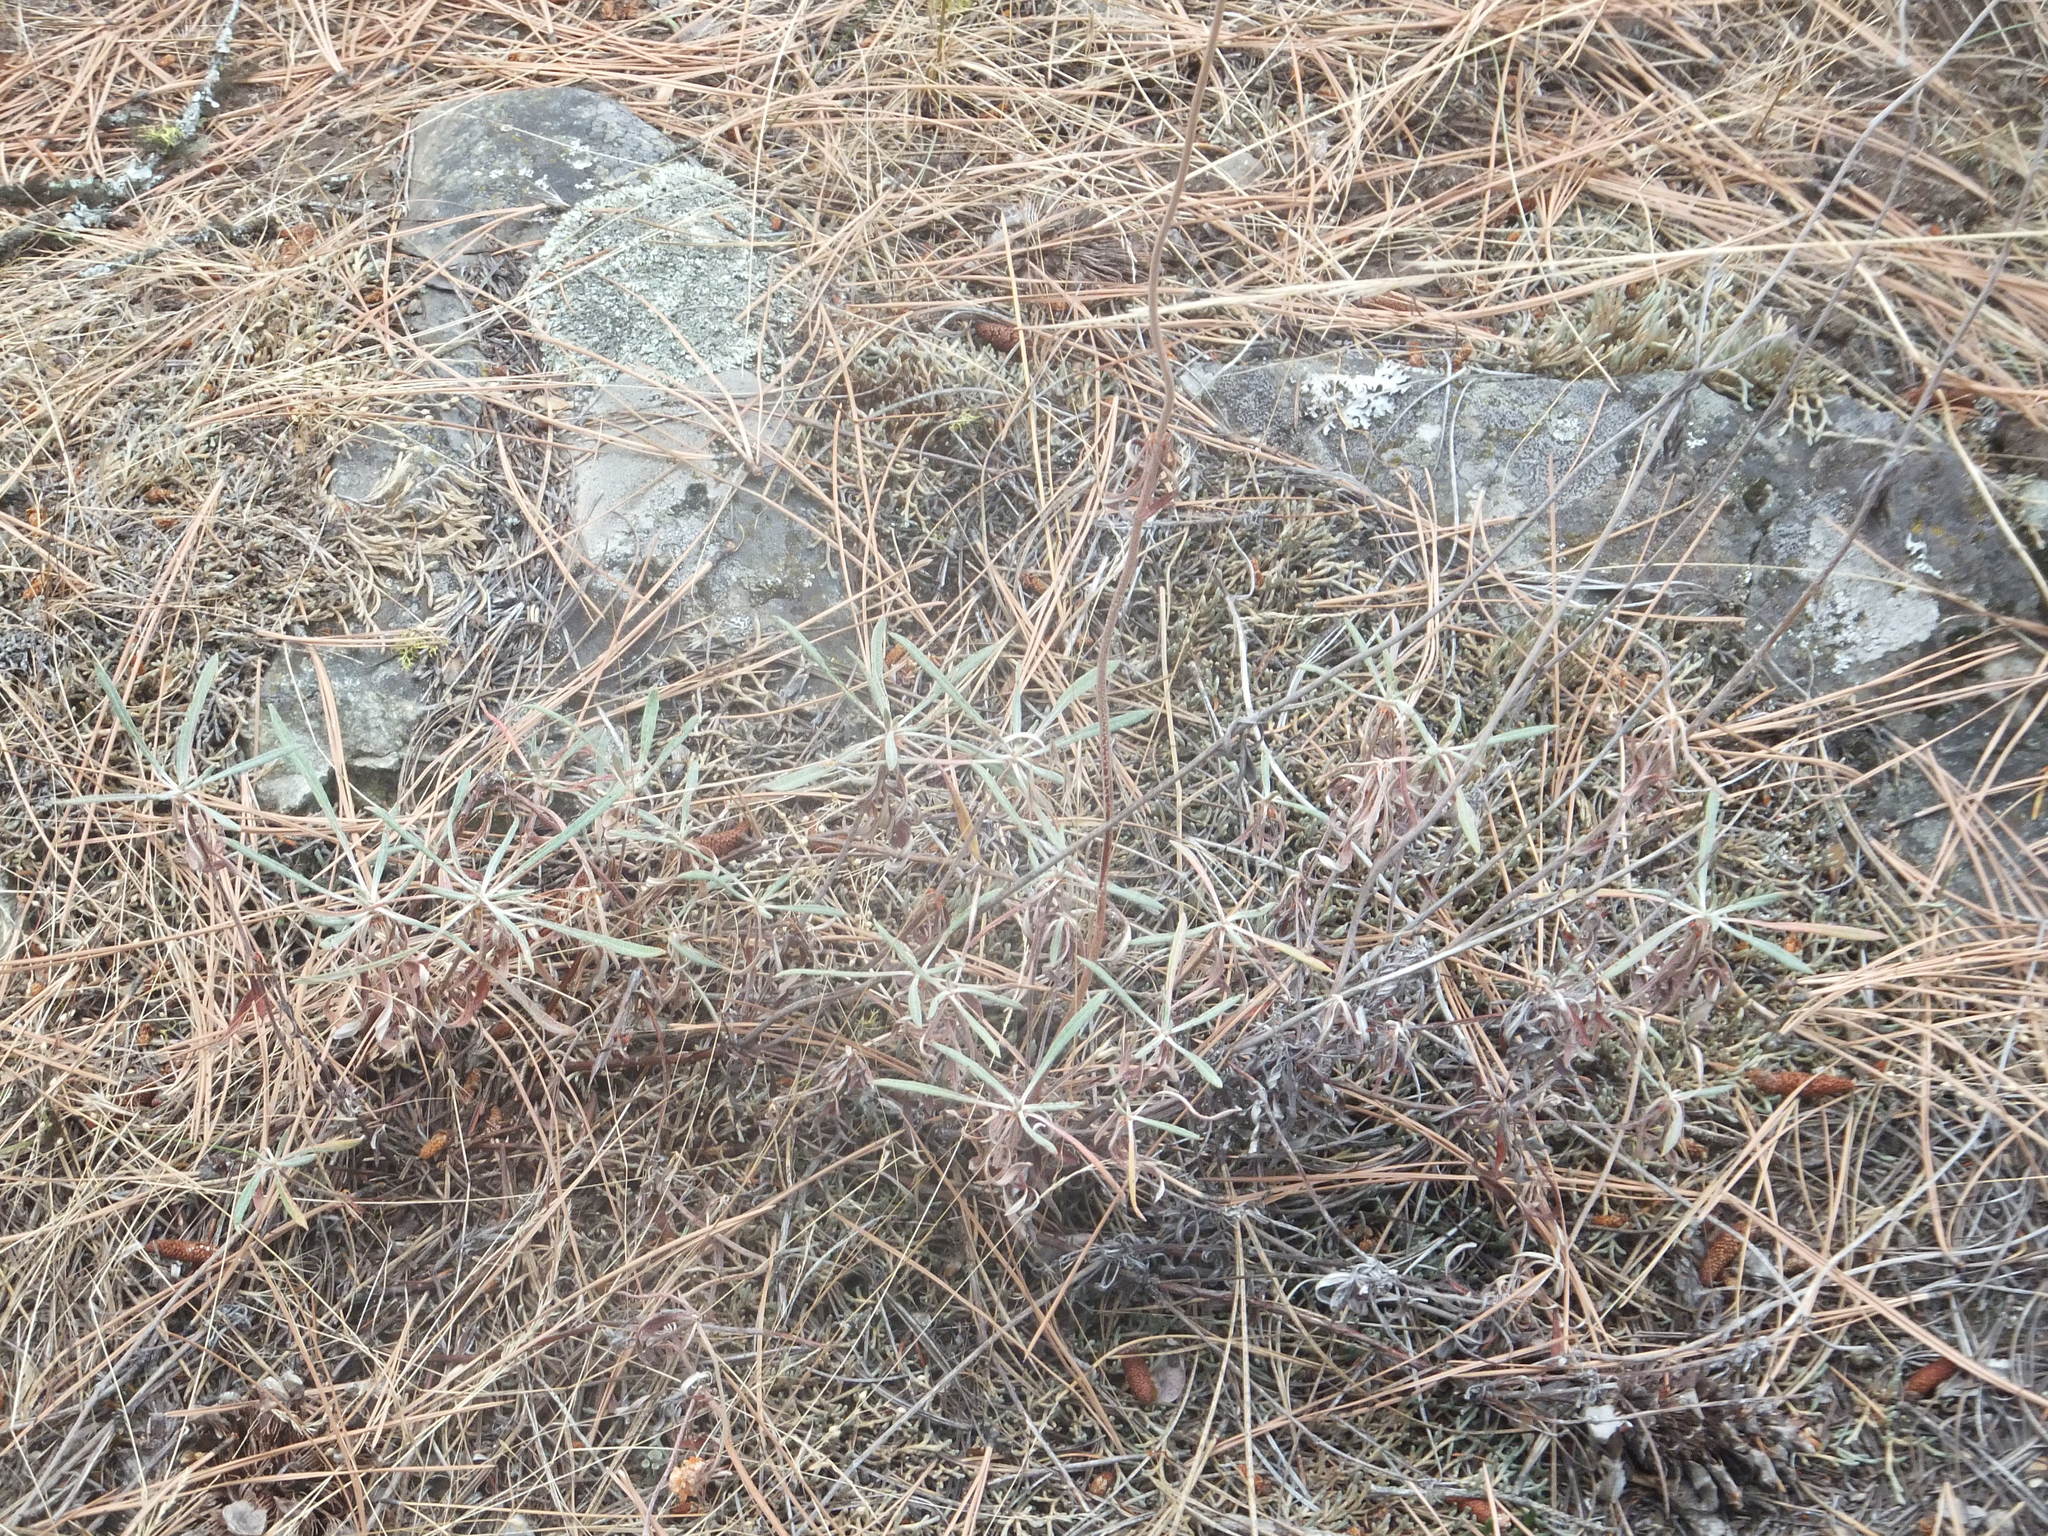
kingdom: Plantae
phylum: Tracheophyta
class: Magnoliopsida
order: Caryophyllales
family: Polygonaceae
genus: Eriogonum
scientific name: Eriogonum heracleoides
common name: Wyeth's buckwheat
